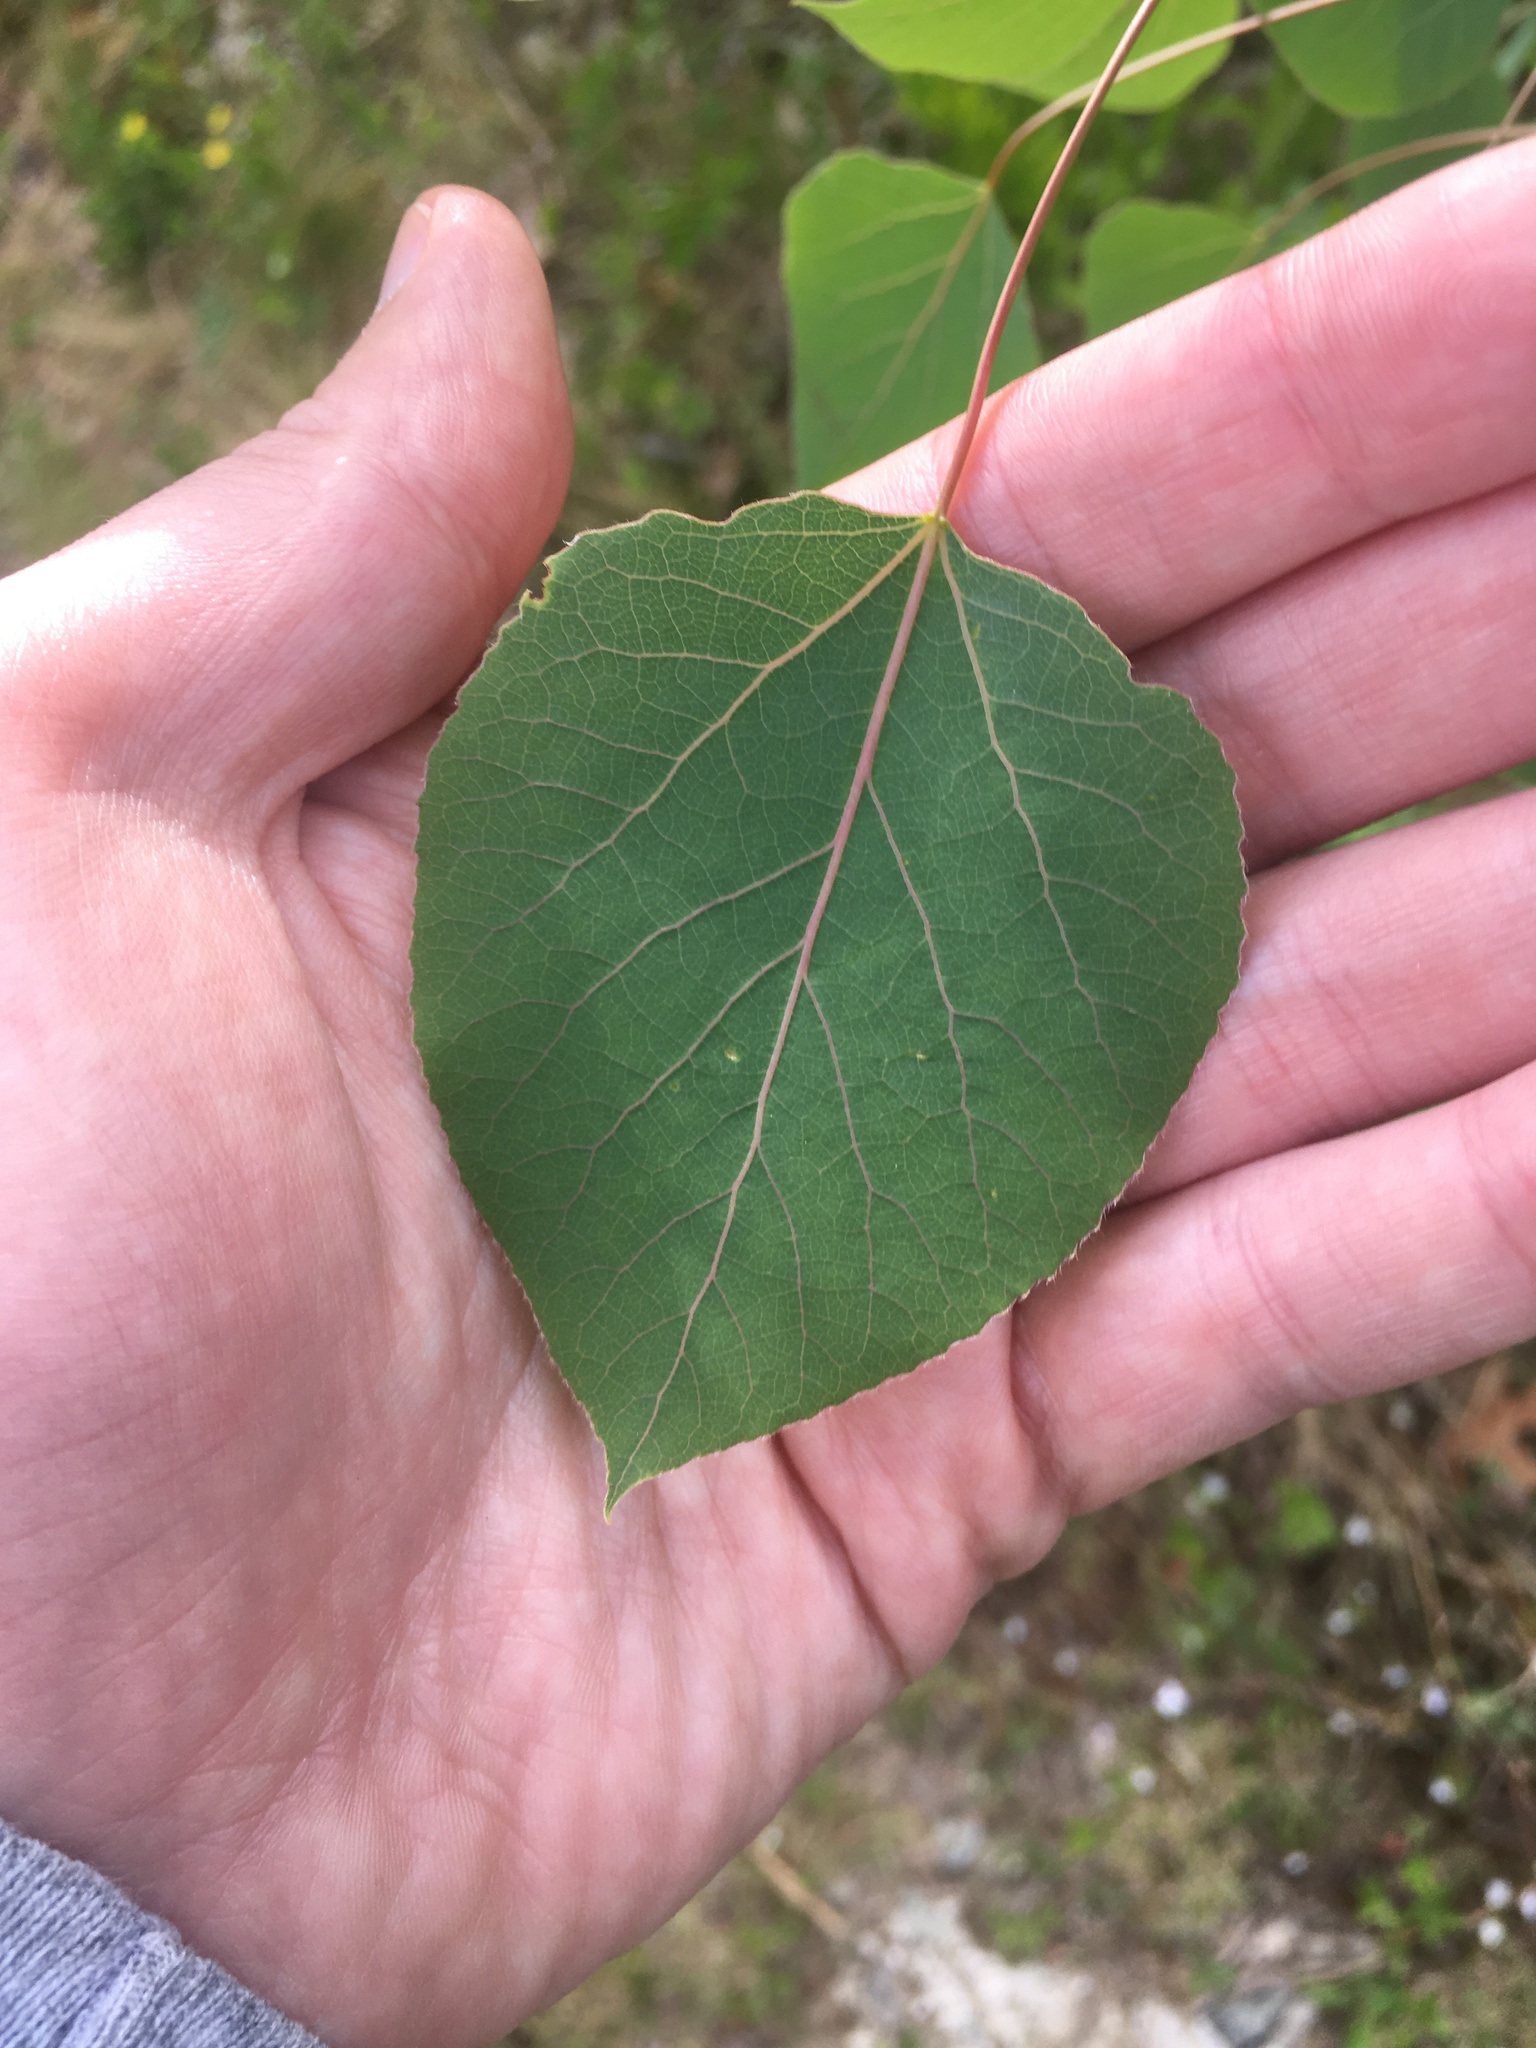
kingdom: Plantae
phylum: Tracheophyta
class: Magnoliopsida
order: Malpighiales
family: Salicaceae
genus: Populus
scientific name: Populus tremuloides
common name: Quaking aspen
